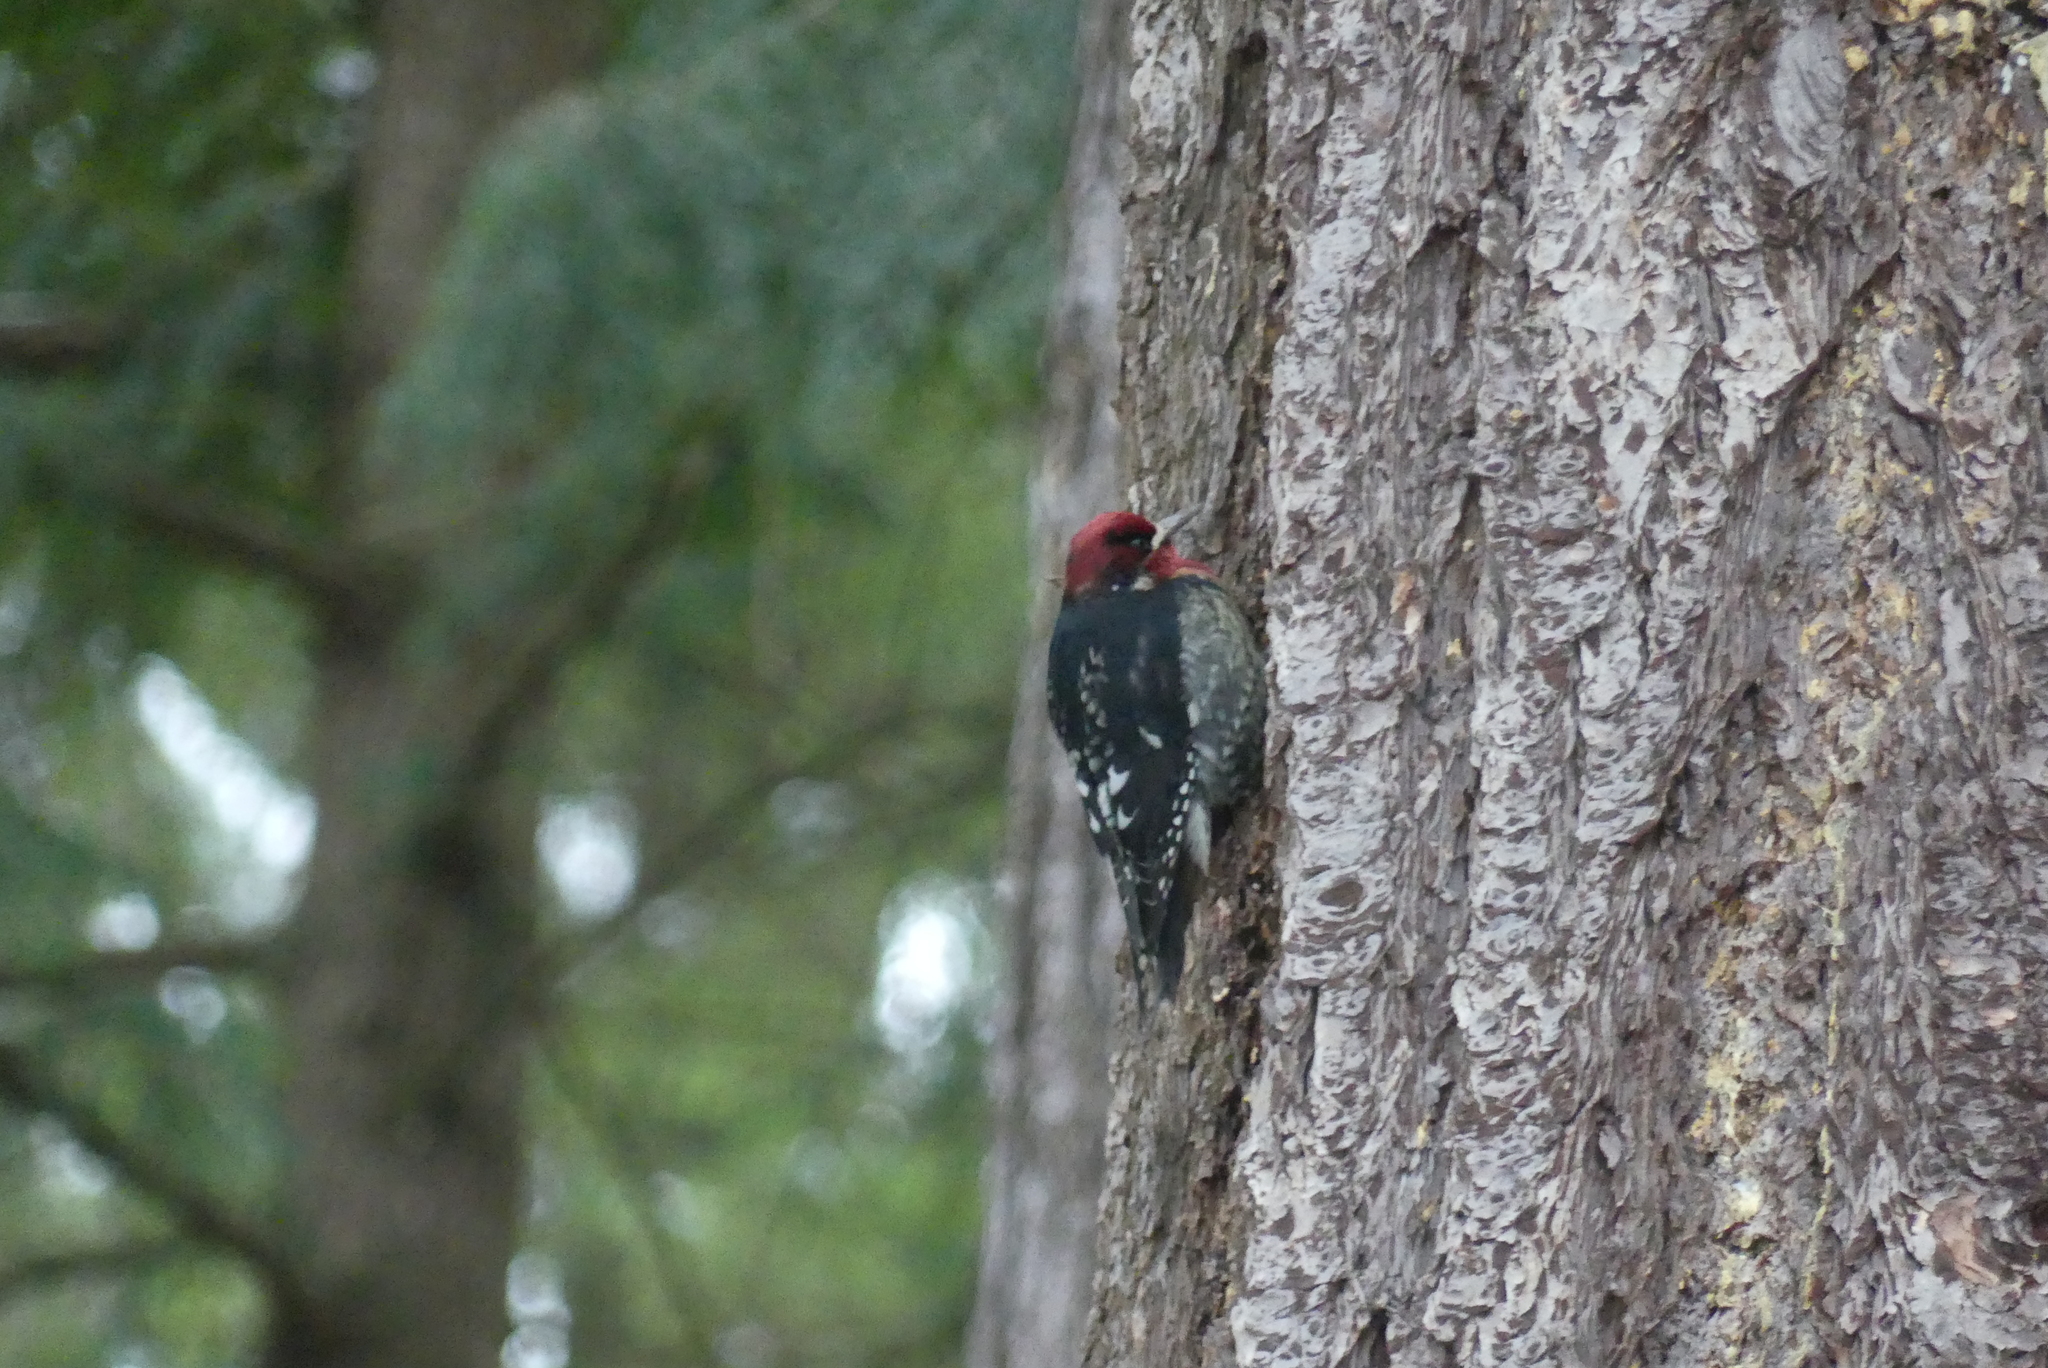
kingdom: Animalia
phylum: Chordata
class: Aves
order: Piciformes
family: Picidae
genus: Sphyrapicus
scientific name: Sphyrapicus ruber
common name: Red-breasted sapsucker
